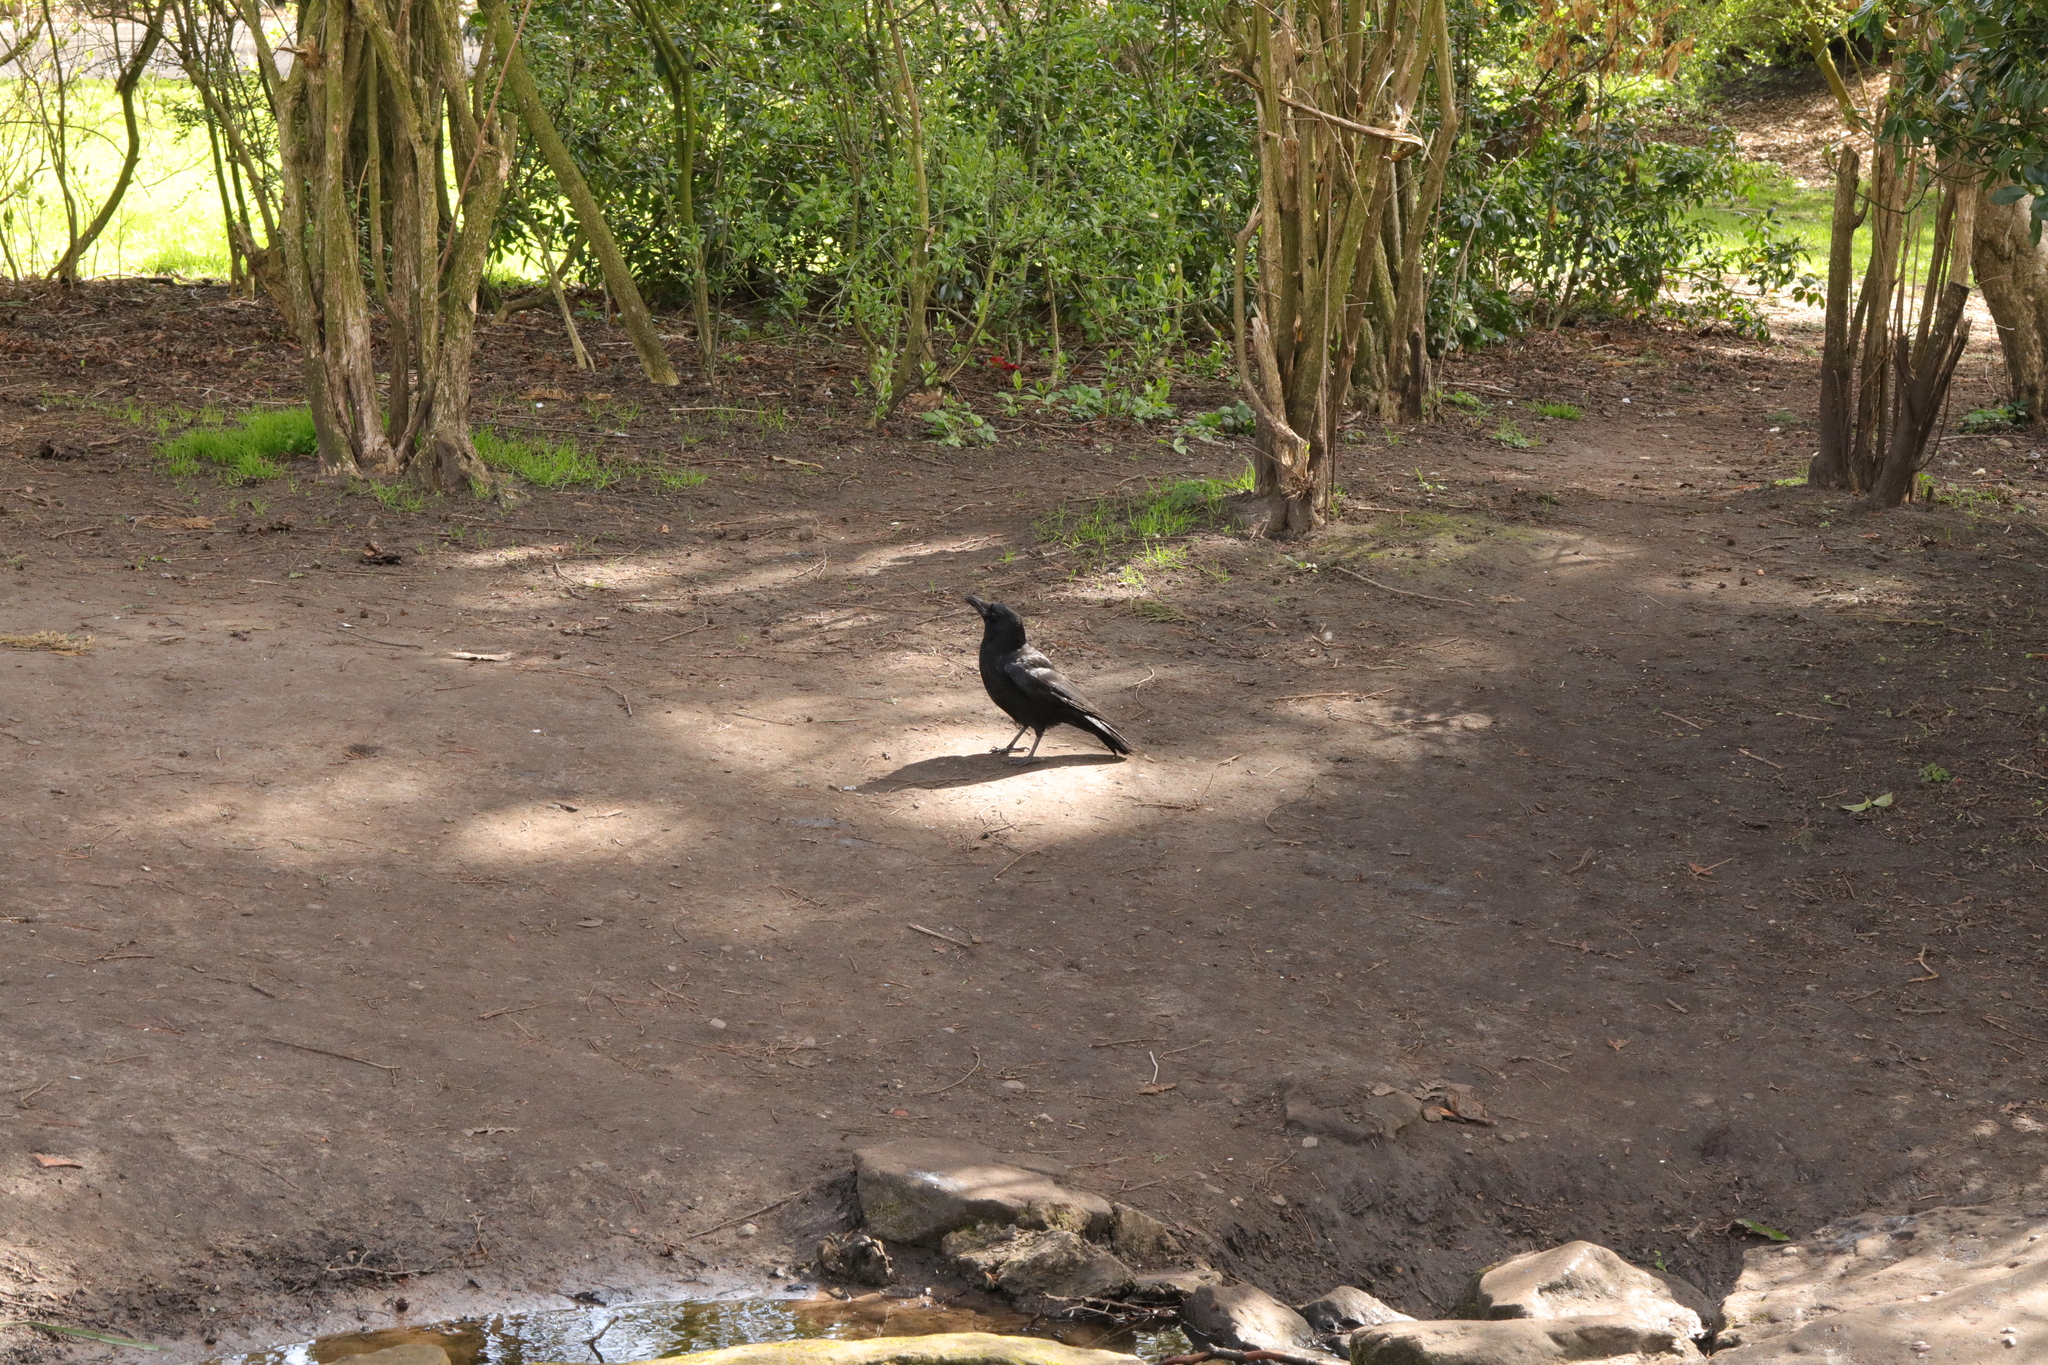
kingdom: Animalia
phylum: Chordata
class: Aves
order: Passeriformes
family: Corvidae
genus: Corvus
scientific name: Corvus corone
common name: Carrion crow
